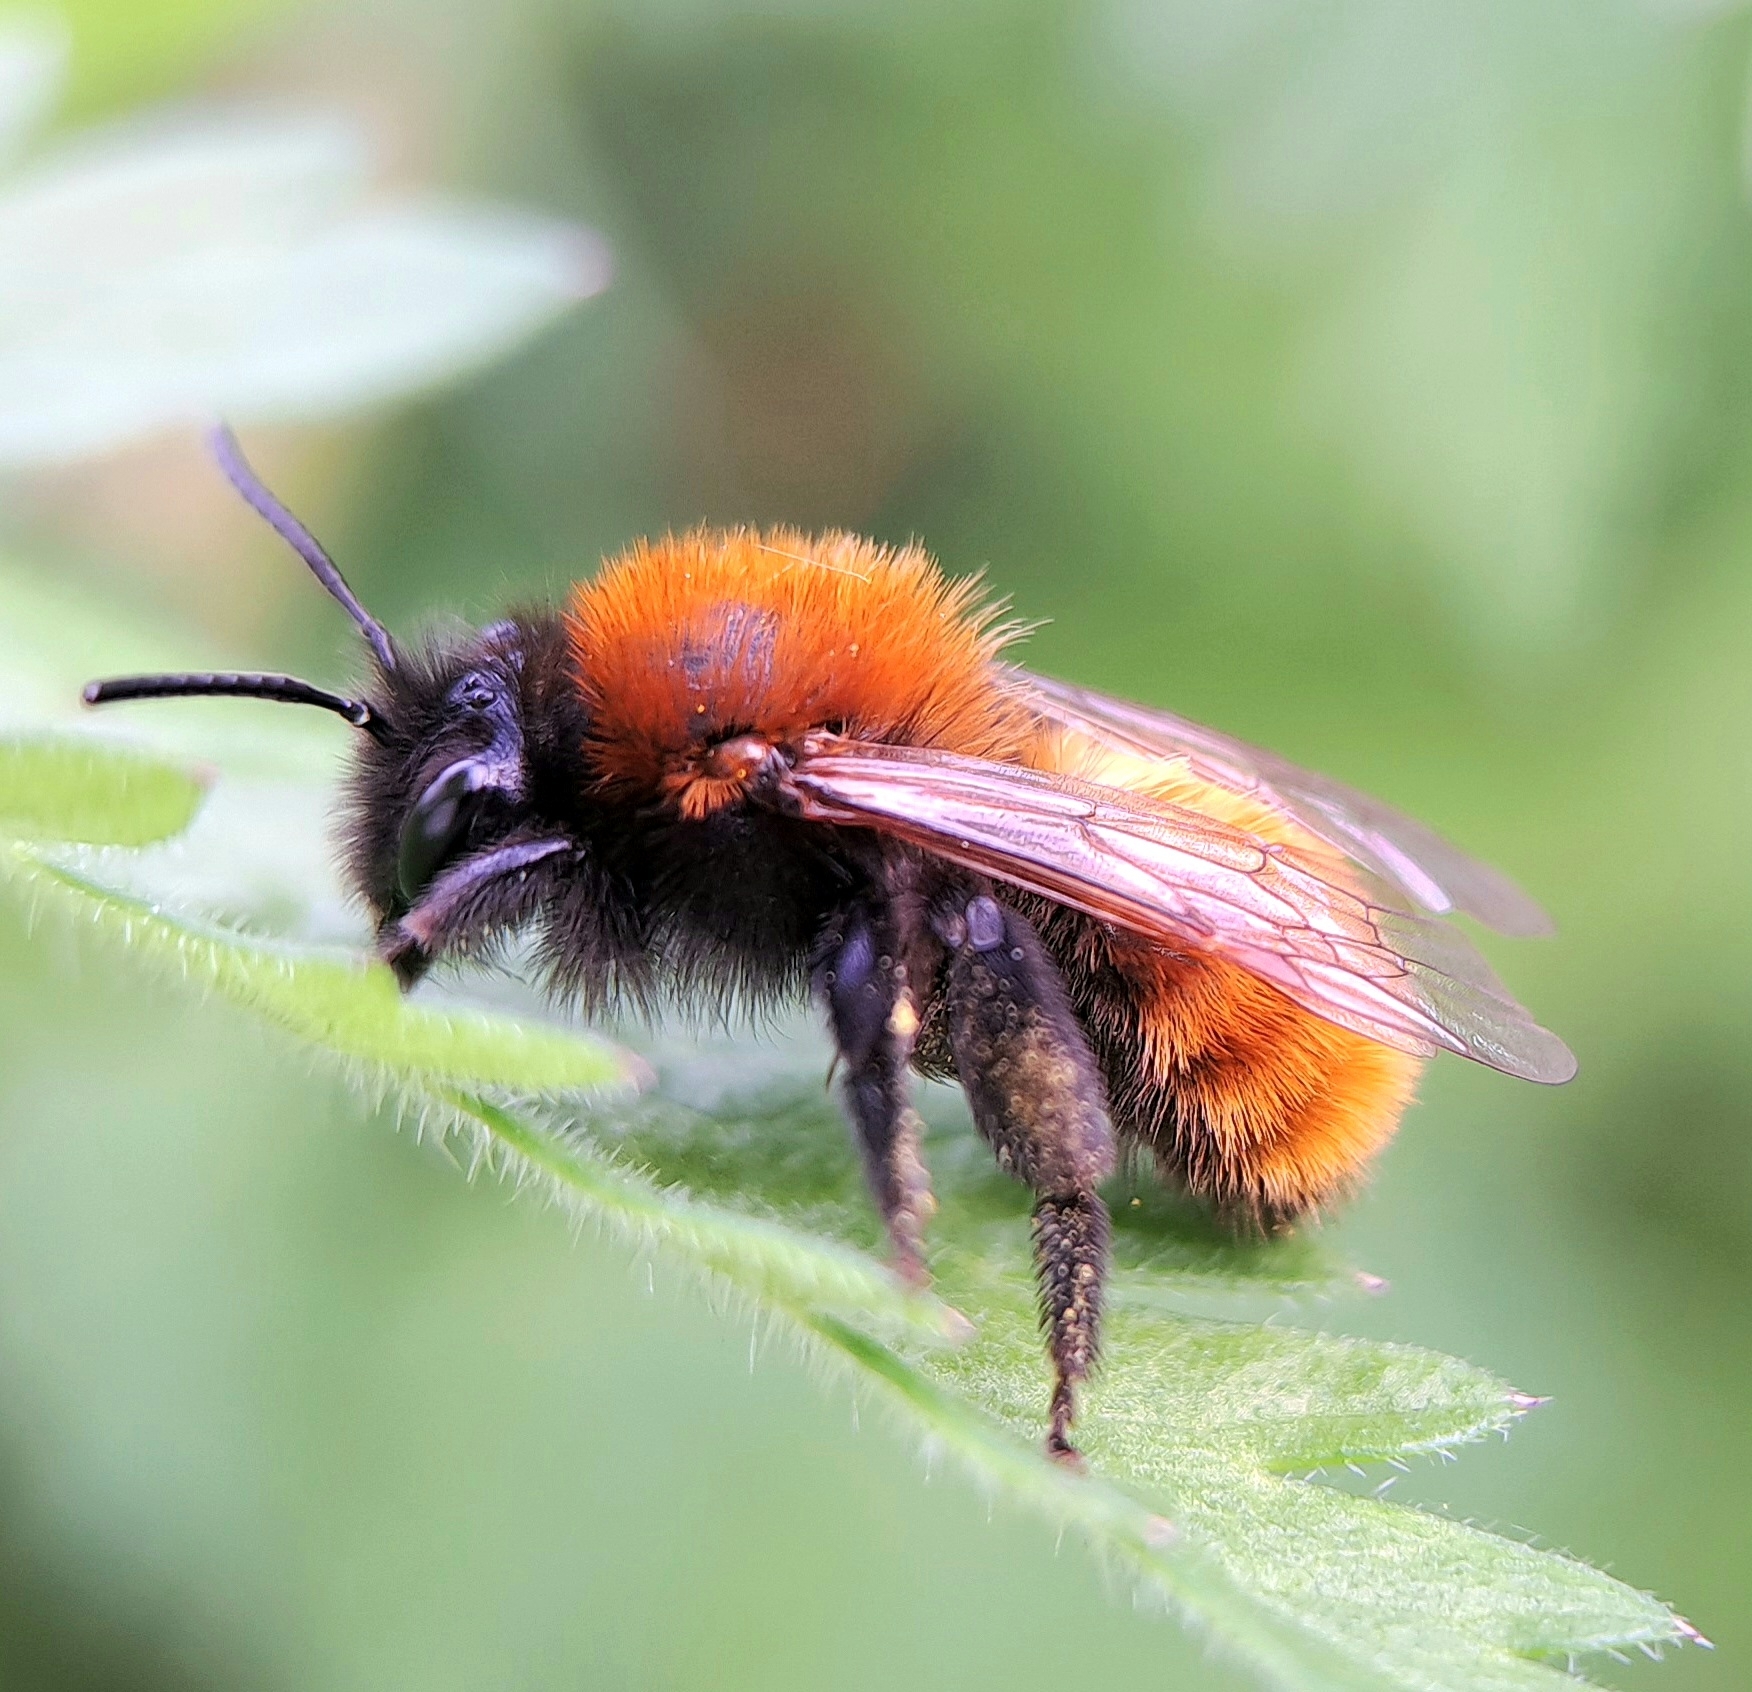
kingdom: Animalia
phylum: Arthropoda
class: Insecta
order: Hymenoptera
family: Andrenidae
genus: Andrena
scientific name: Andrena fulva
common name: Tawny mining bee
